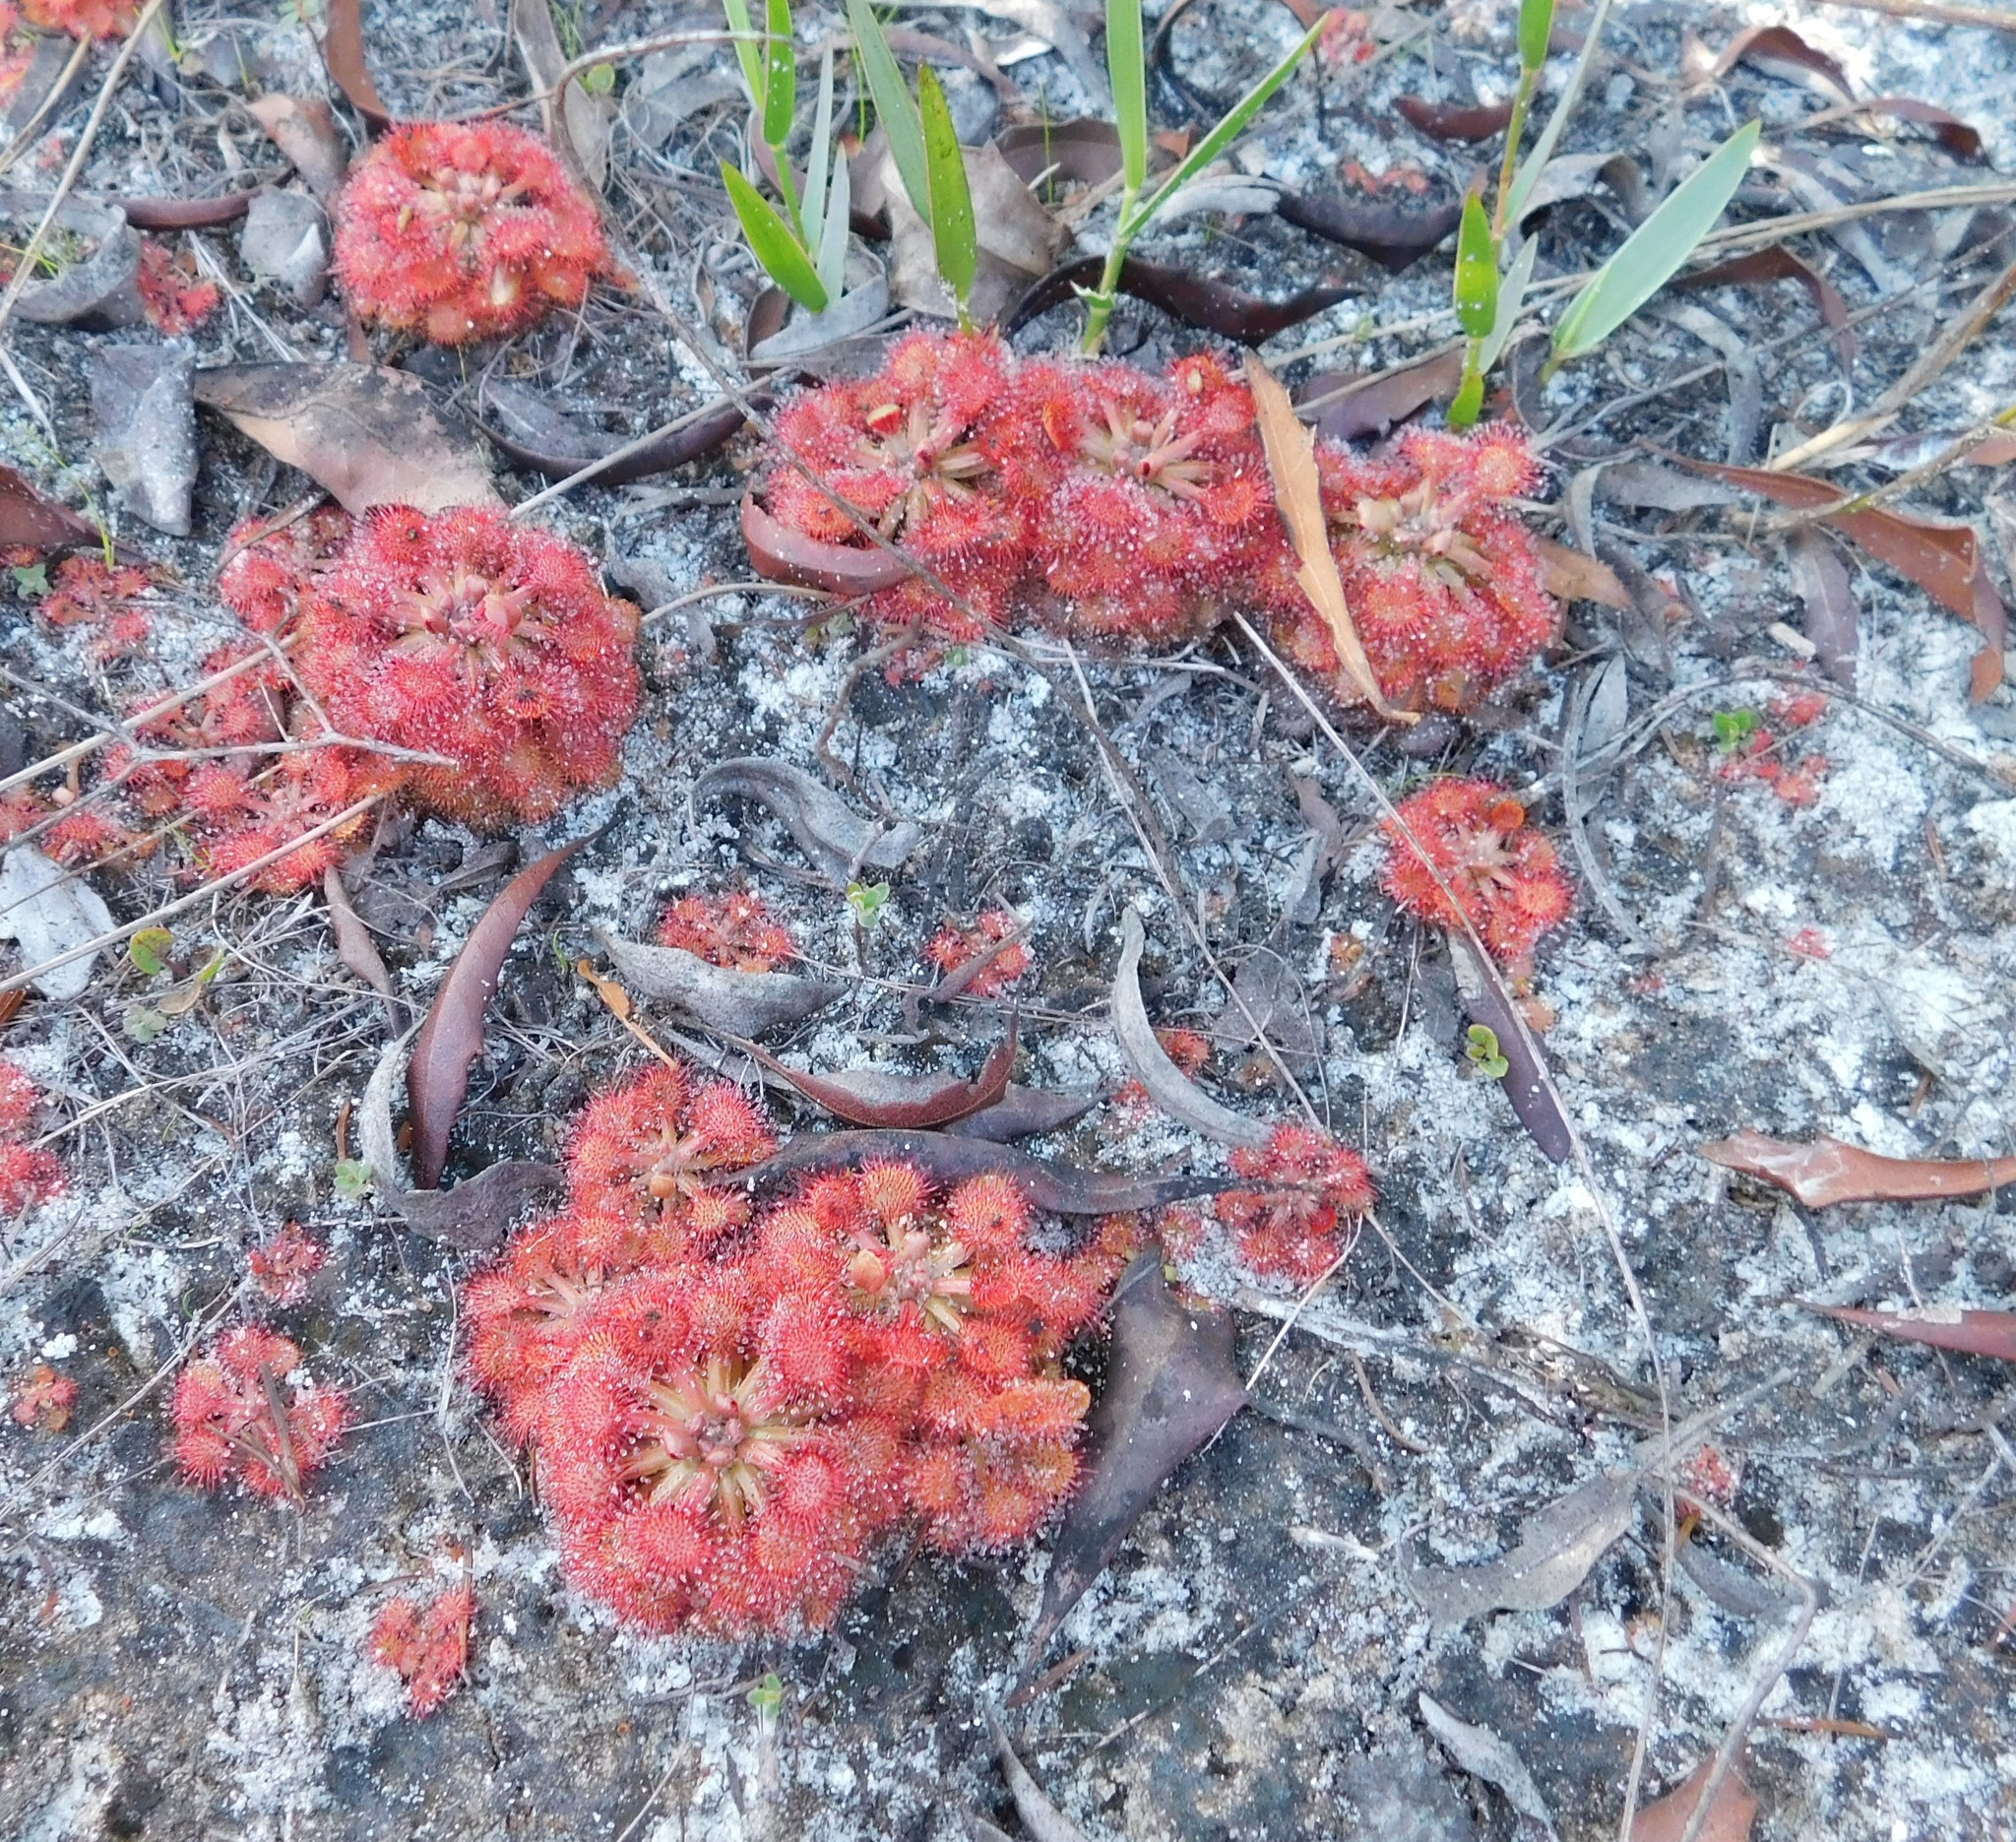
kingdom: Plantae
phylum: Tracheophyta
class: Magnoliopsida
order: Caryophyllales
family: Droseraceae
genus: Drosera
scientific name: Drosera capillaris
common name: Pink sundew
